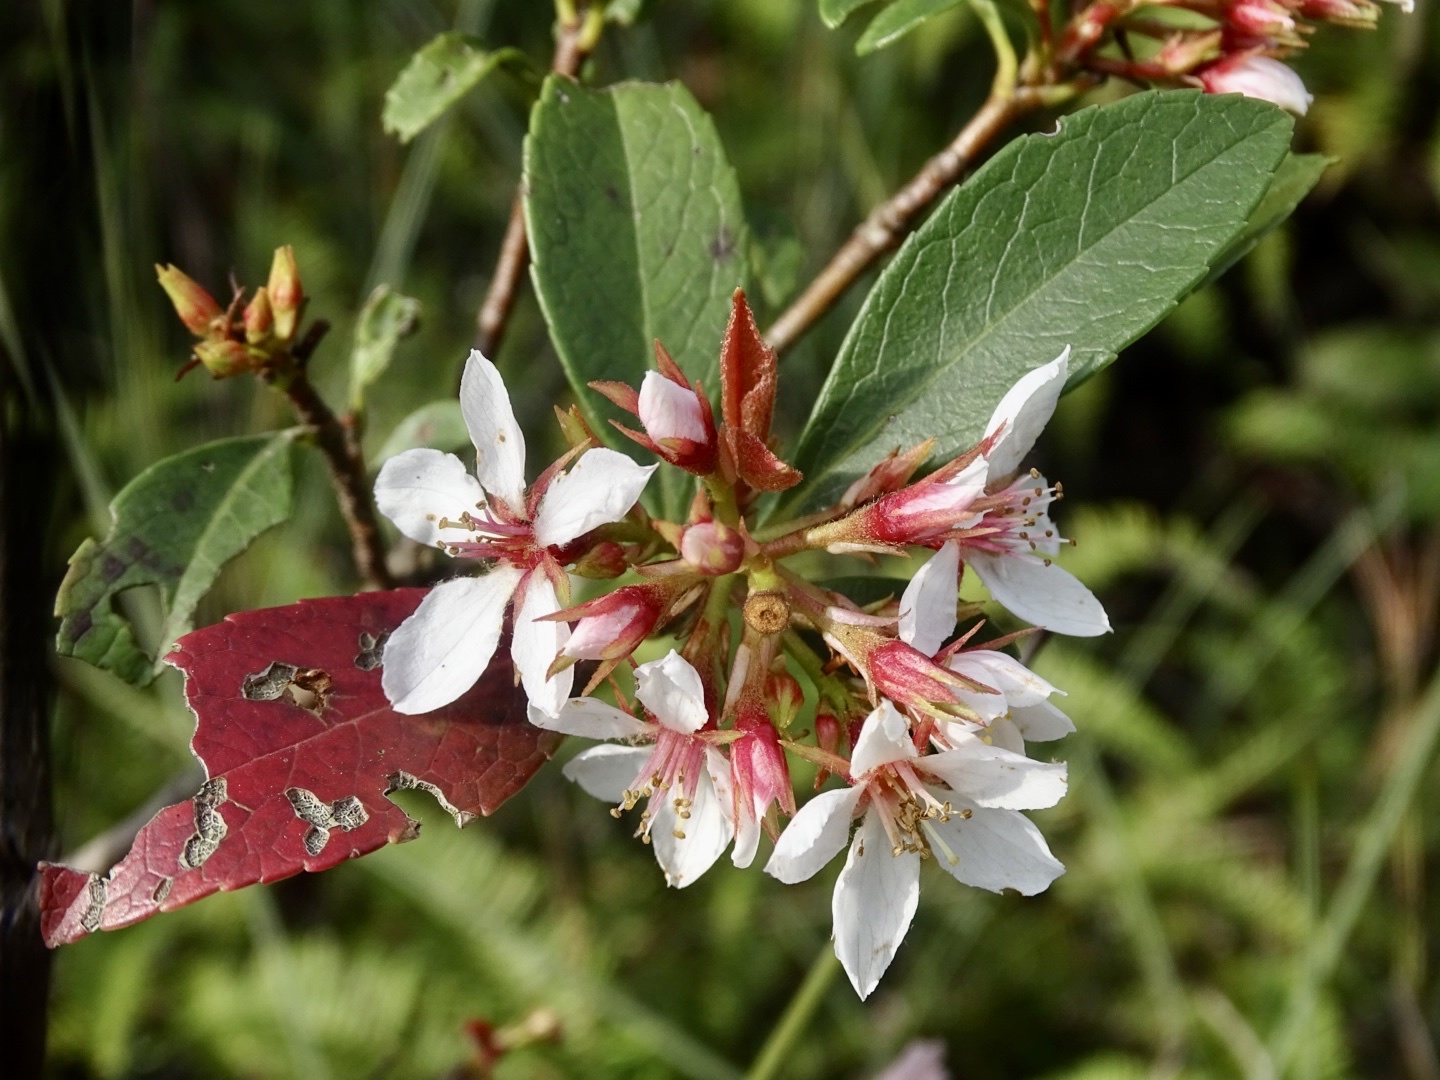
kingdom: Plantae
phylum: Tracheophyta
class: Magnoliopsida
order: Rosales
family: Rosaceae
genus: Rhaphiolepis
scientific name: Rhaphiolepis indica
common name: India-hawthorn
